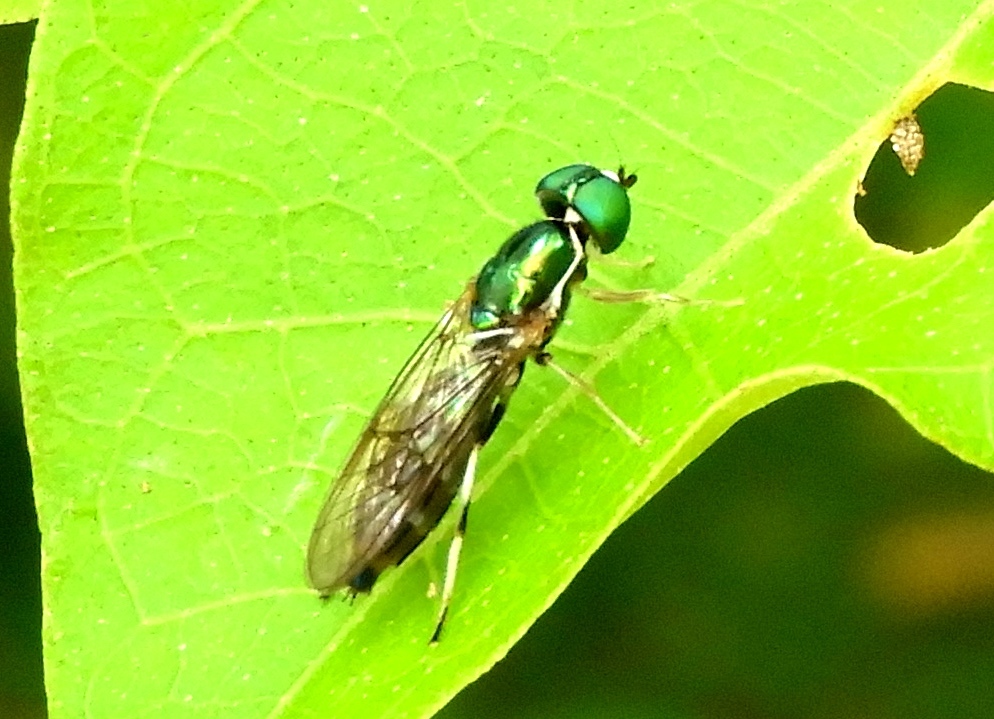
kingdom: Animalia
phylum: Arthropoda
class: Insecta
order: Diptera
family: Stratiomyidae
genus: Sargus
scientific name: Sargus fasciatus
